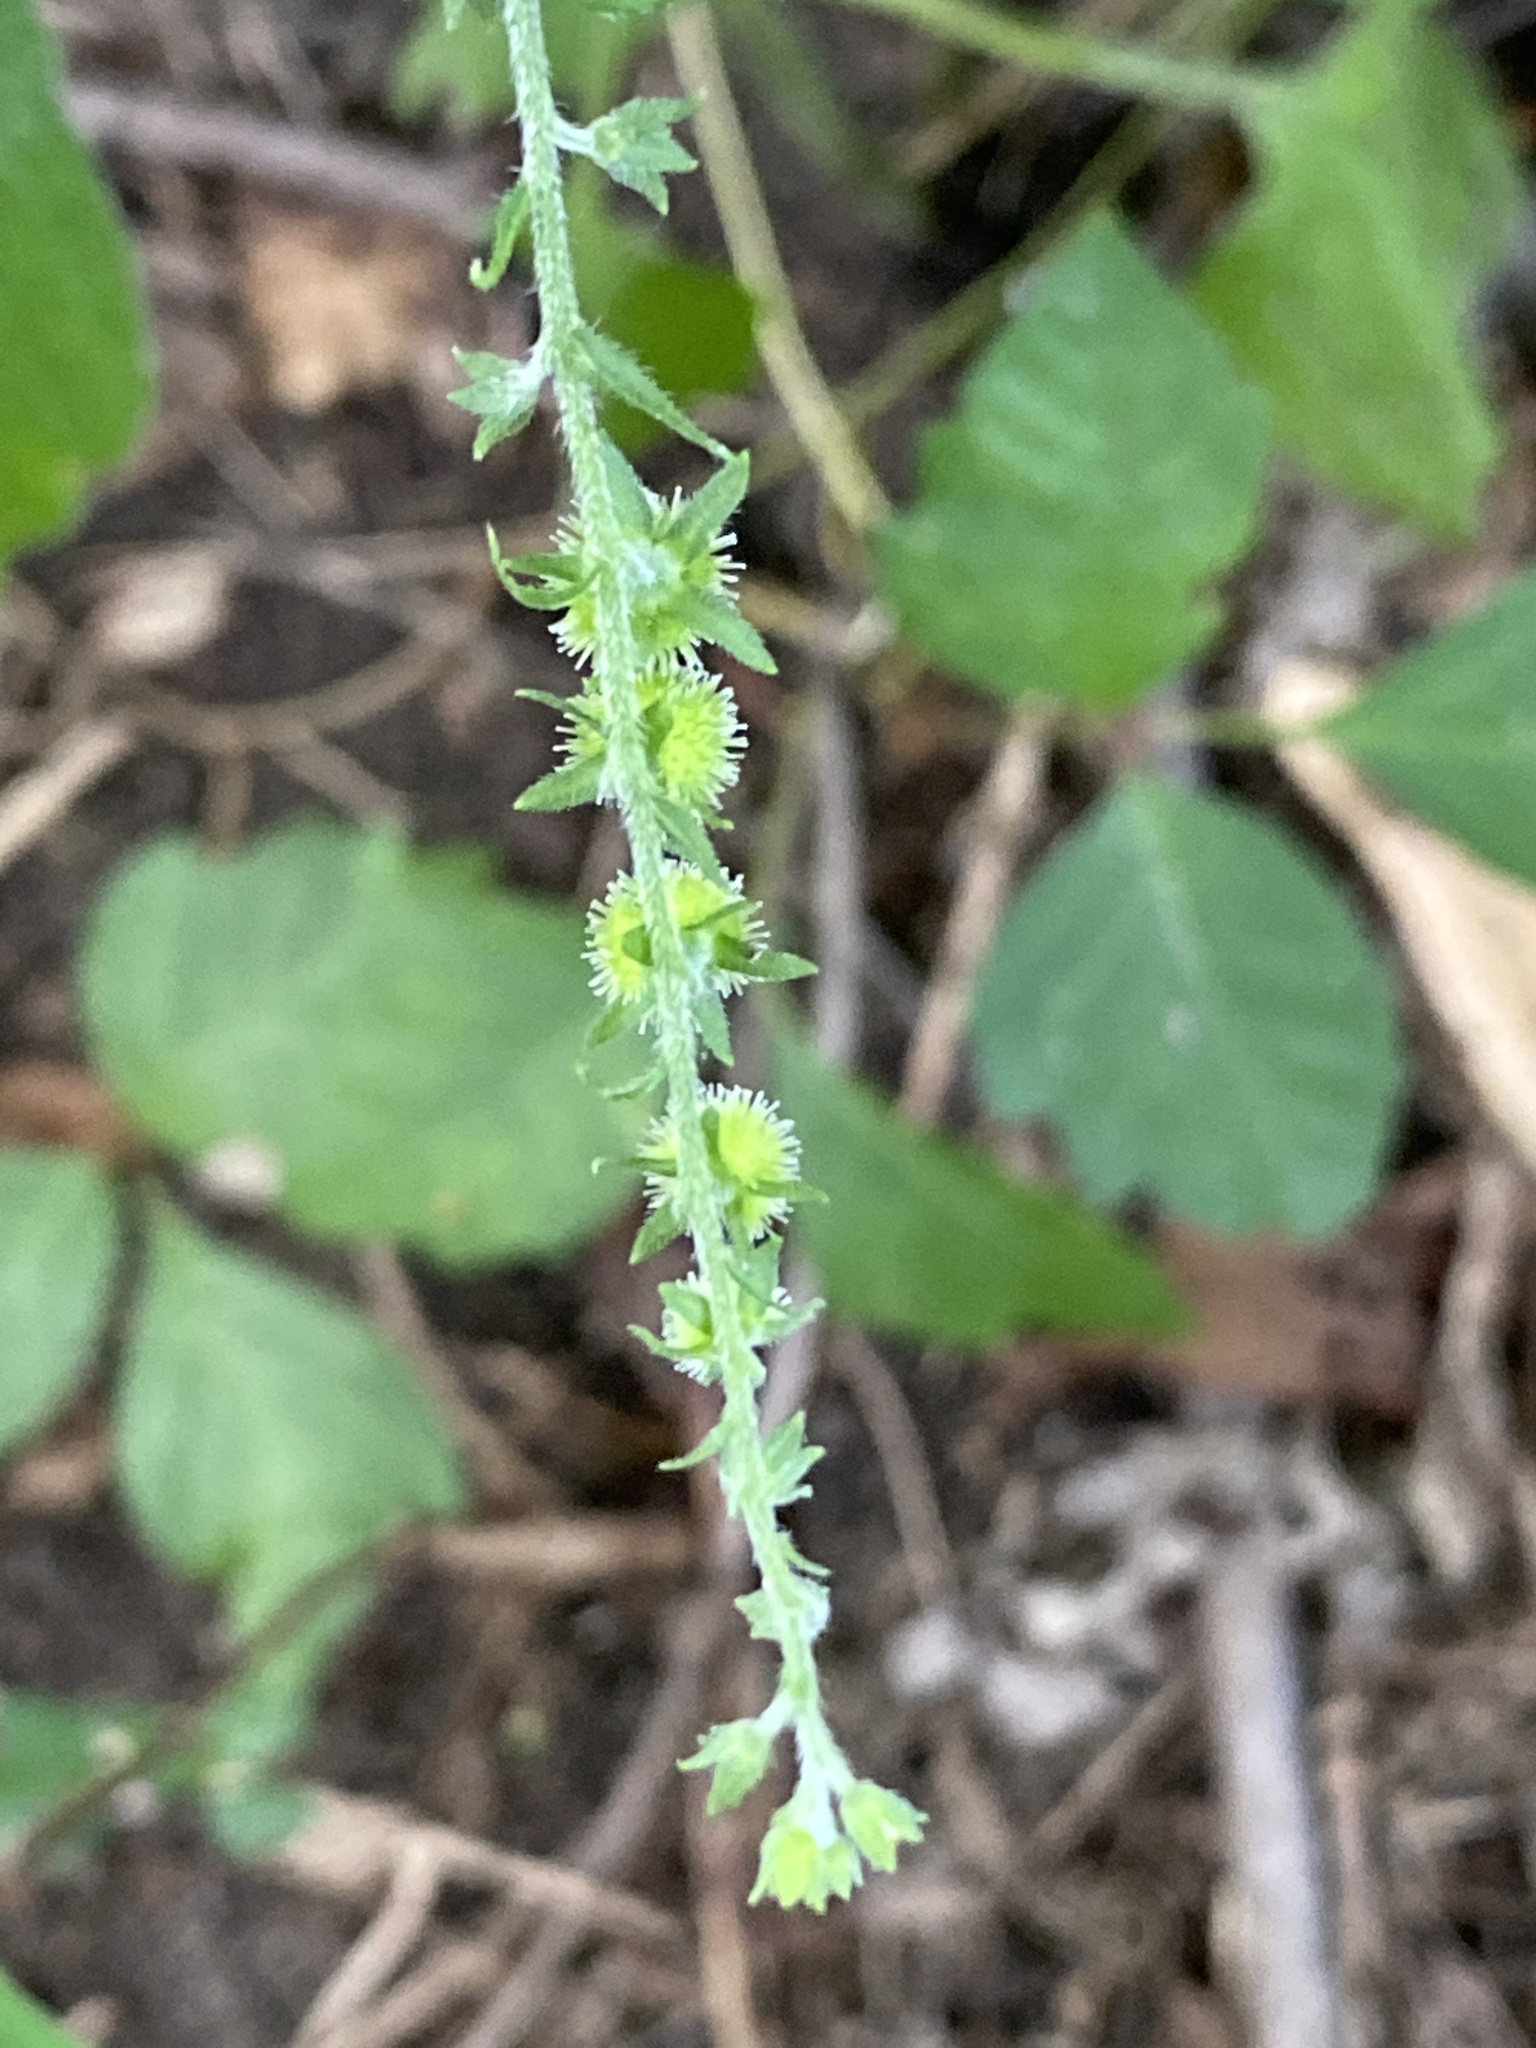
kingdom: Plantae
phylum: Tracheophyta
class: Magnoliopsida
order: Boraginales
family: Boraginaceae
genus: Hackelia
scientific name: Hackelia virginiana
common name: Beggar's-lice
